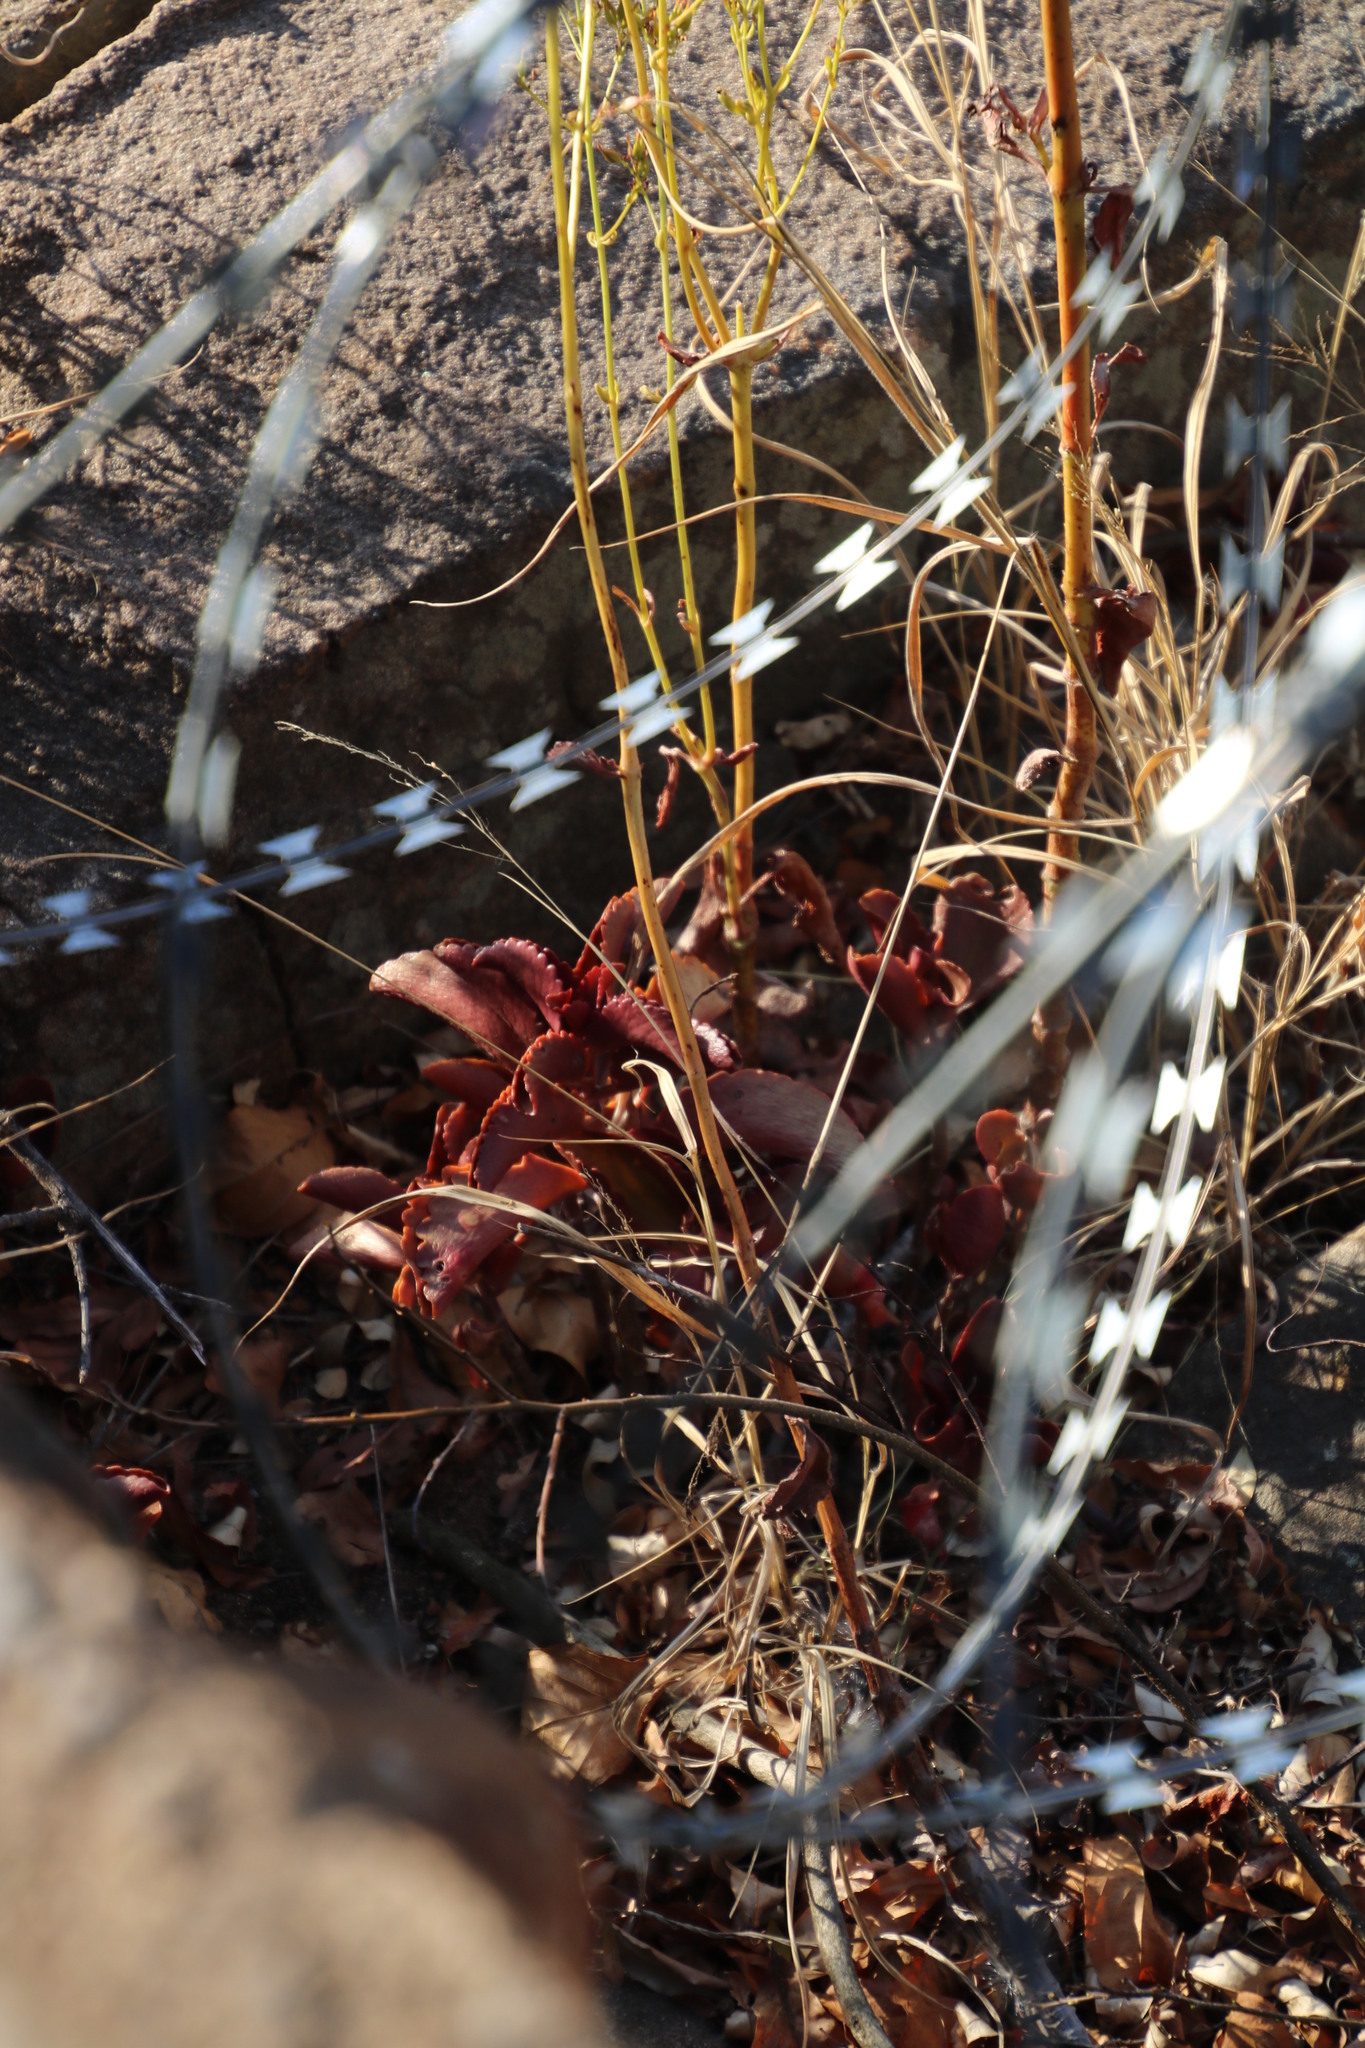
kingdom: Plantae
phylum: Tracheophyta
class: Magnoliopsida
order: Saxifragales
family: Crassulaceae
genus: Kalanchoe
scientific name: Kalanchoe sexangularis
